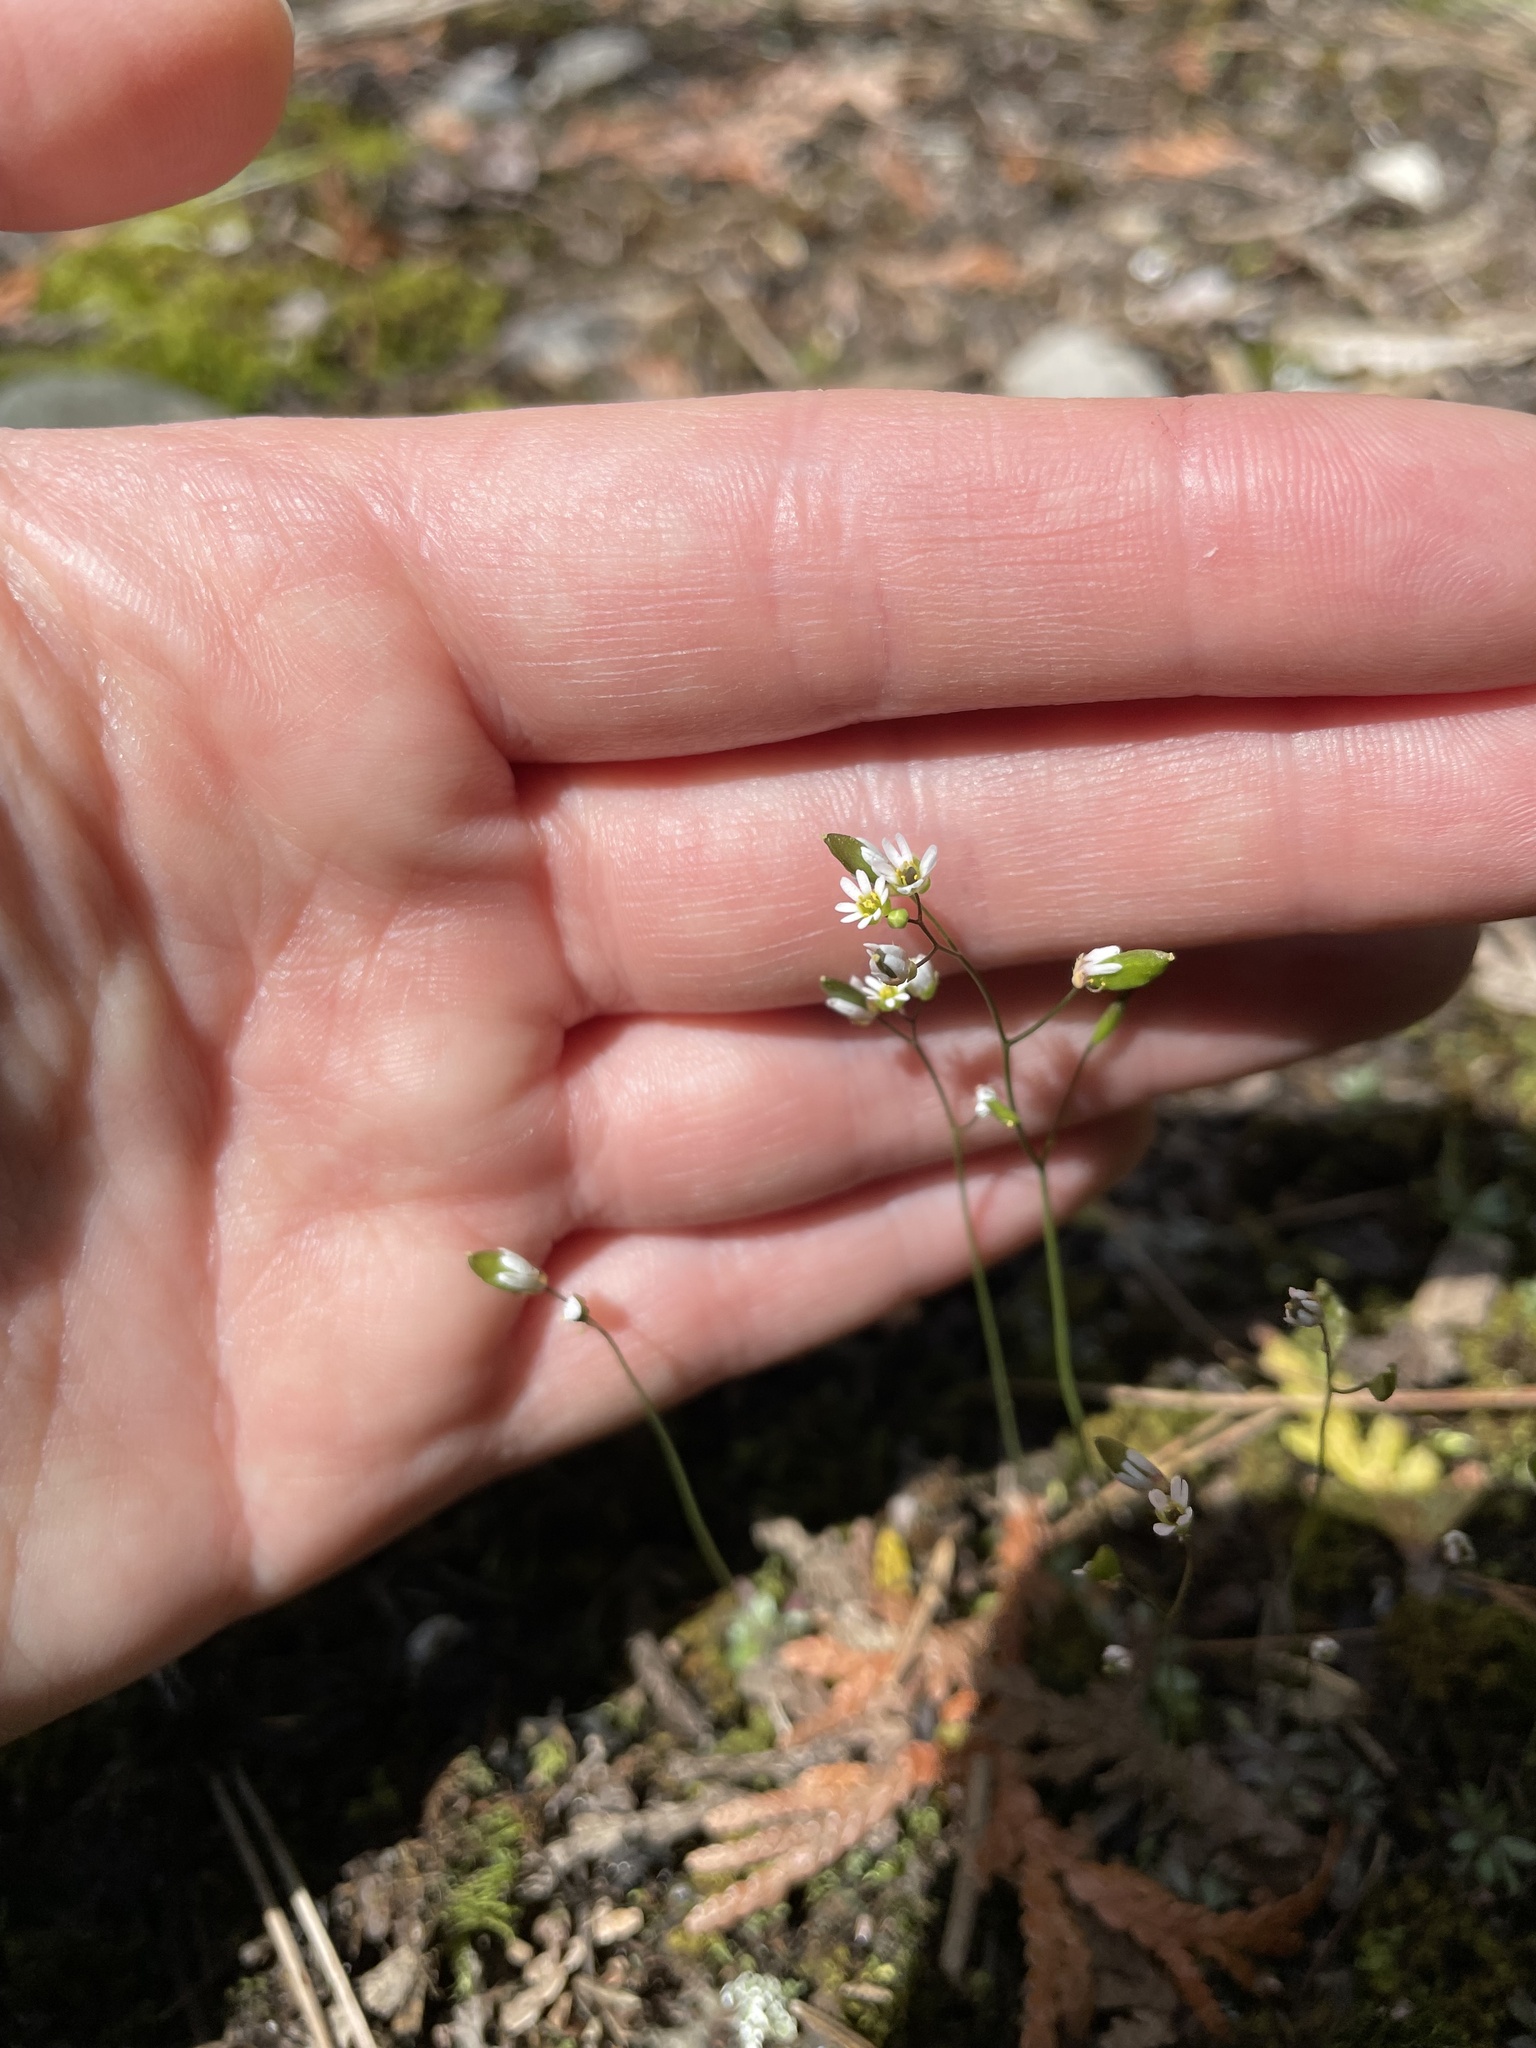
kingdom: Plantae
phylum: Tracheophyta
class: Magnoliopsida
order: Brassicales
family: Brassicaceae
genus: Draba
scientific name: Draba verna
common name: Spring draba
